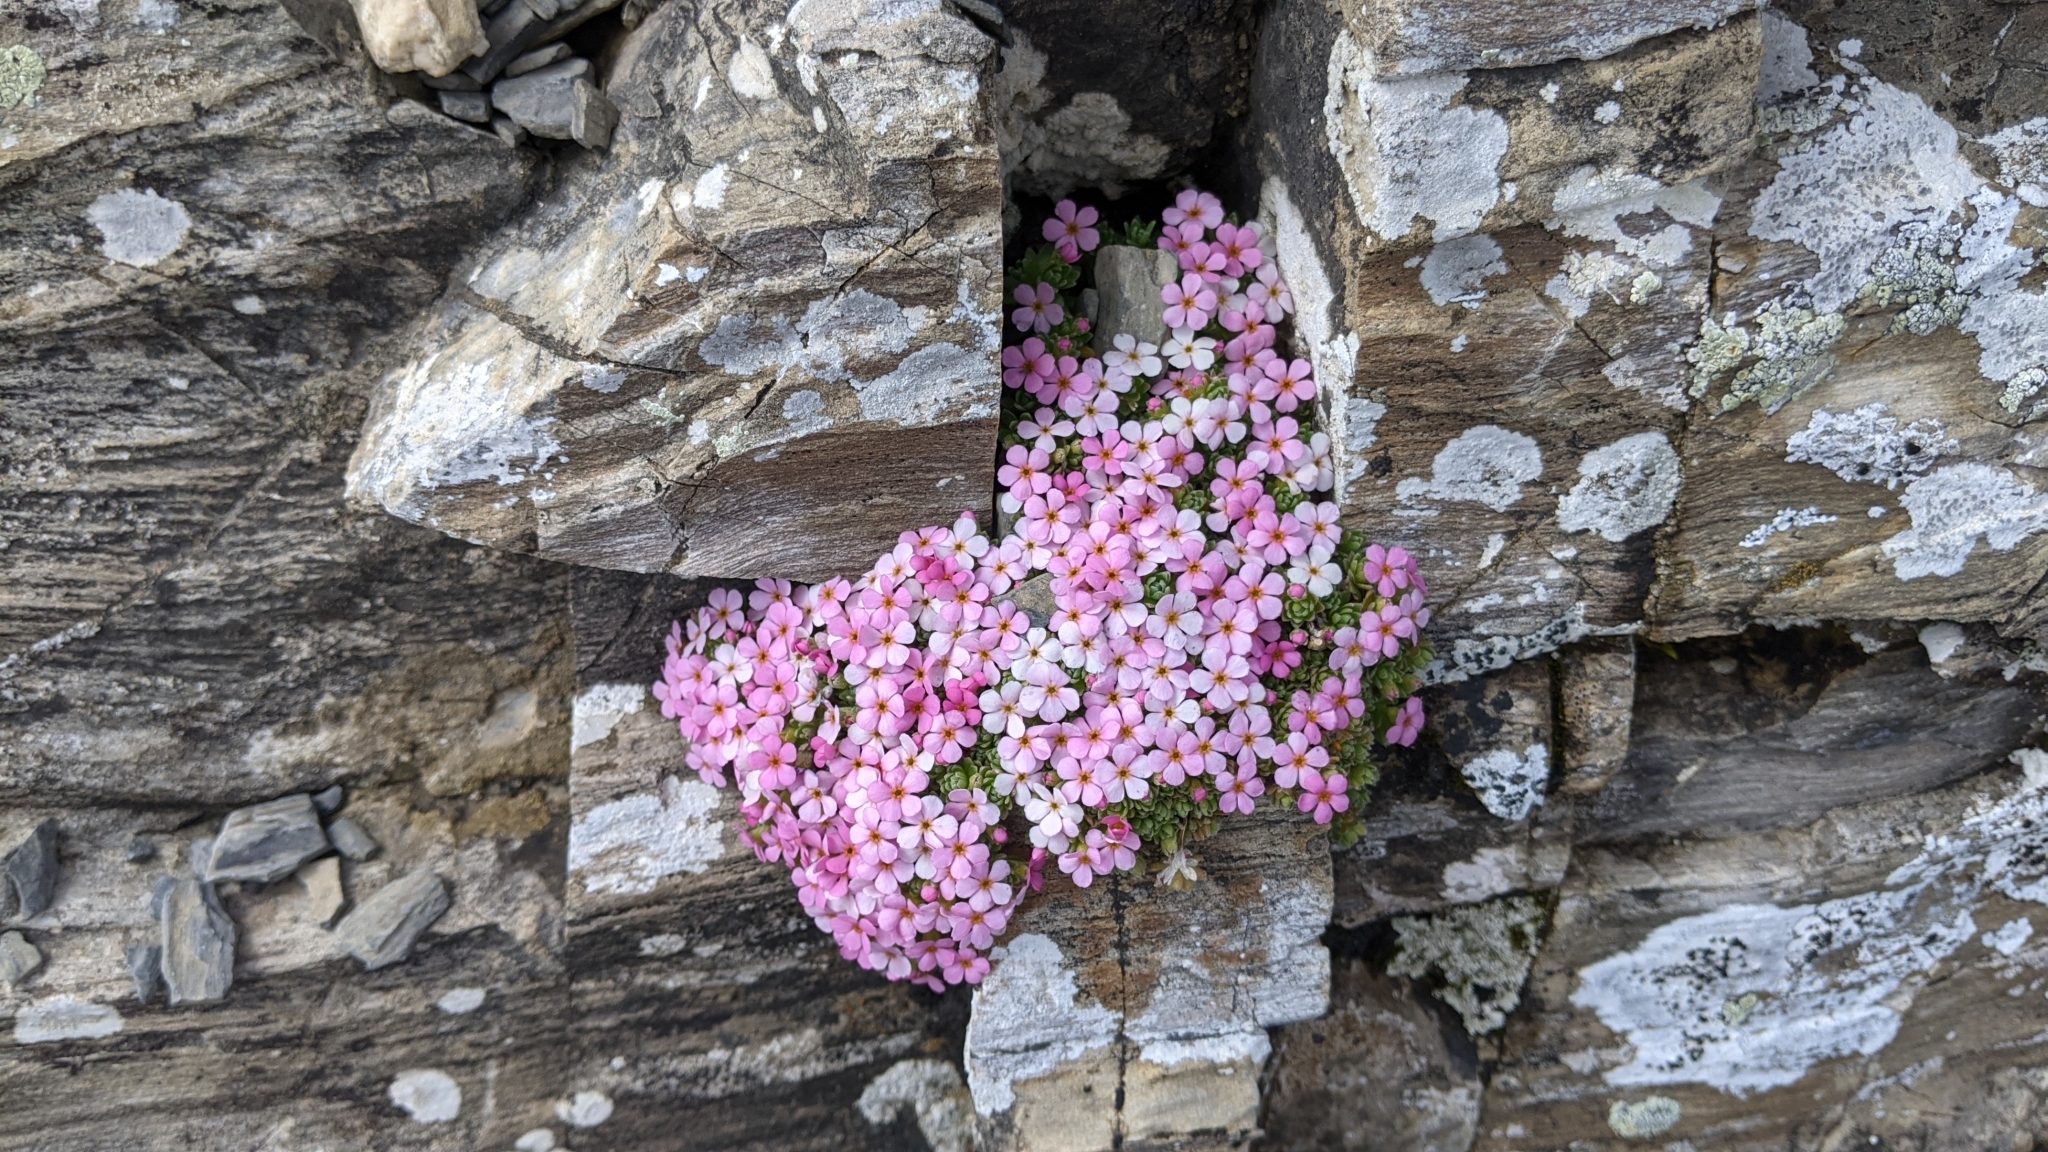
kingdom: Plantae
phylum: Tracheophyta
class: Magnoliopsida
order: Ericales
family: Primulaceae
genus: Androsace
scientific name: Androsace alpina
